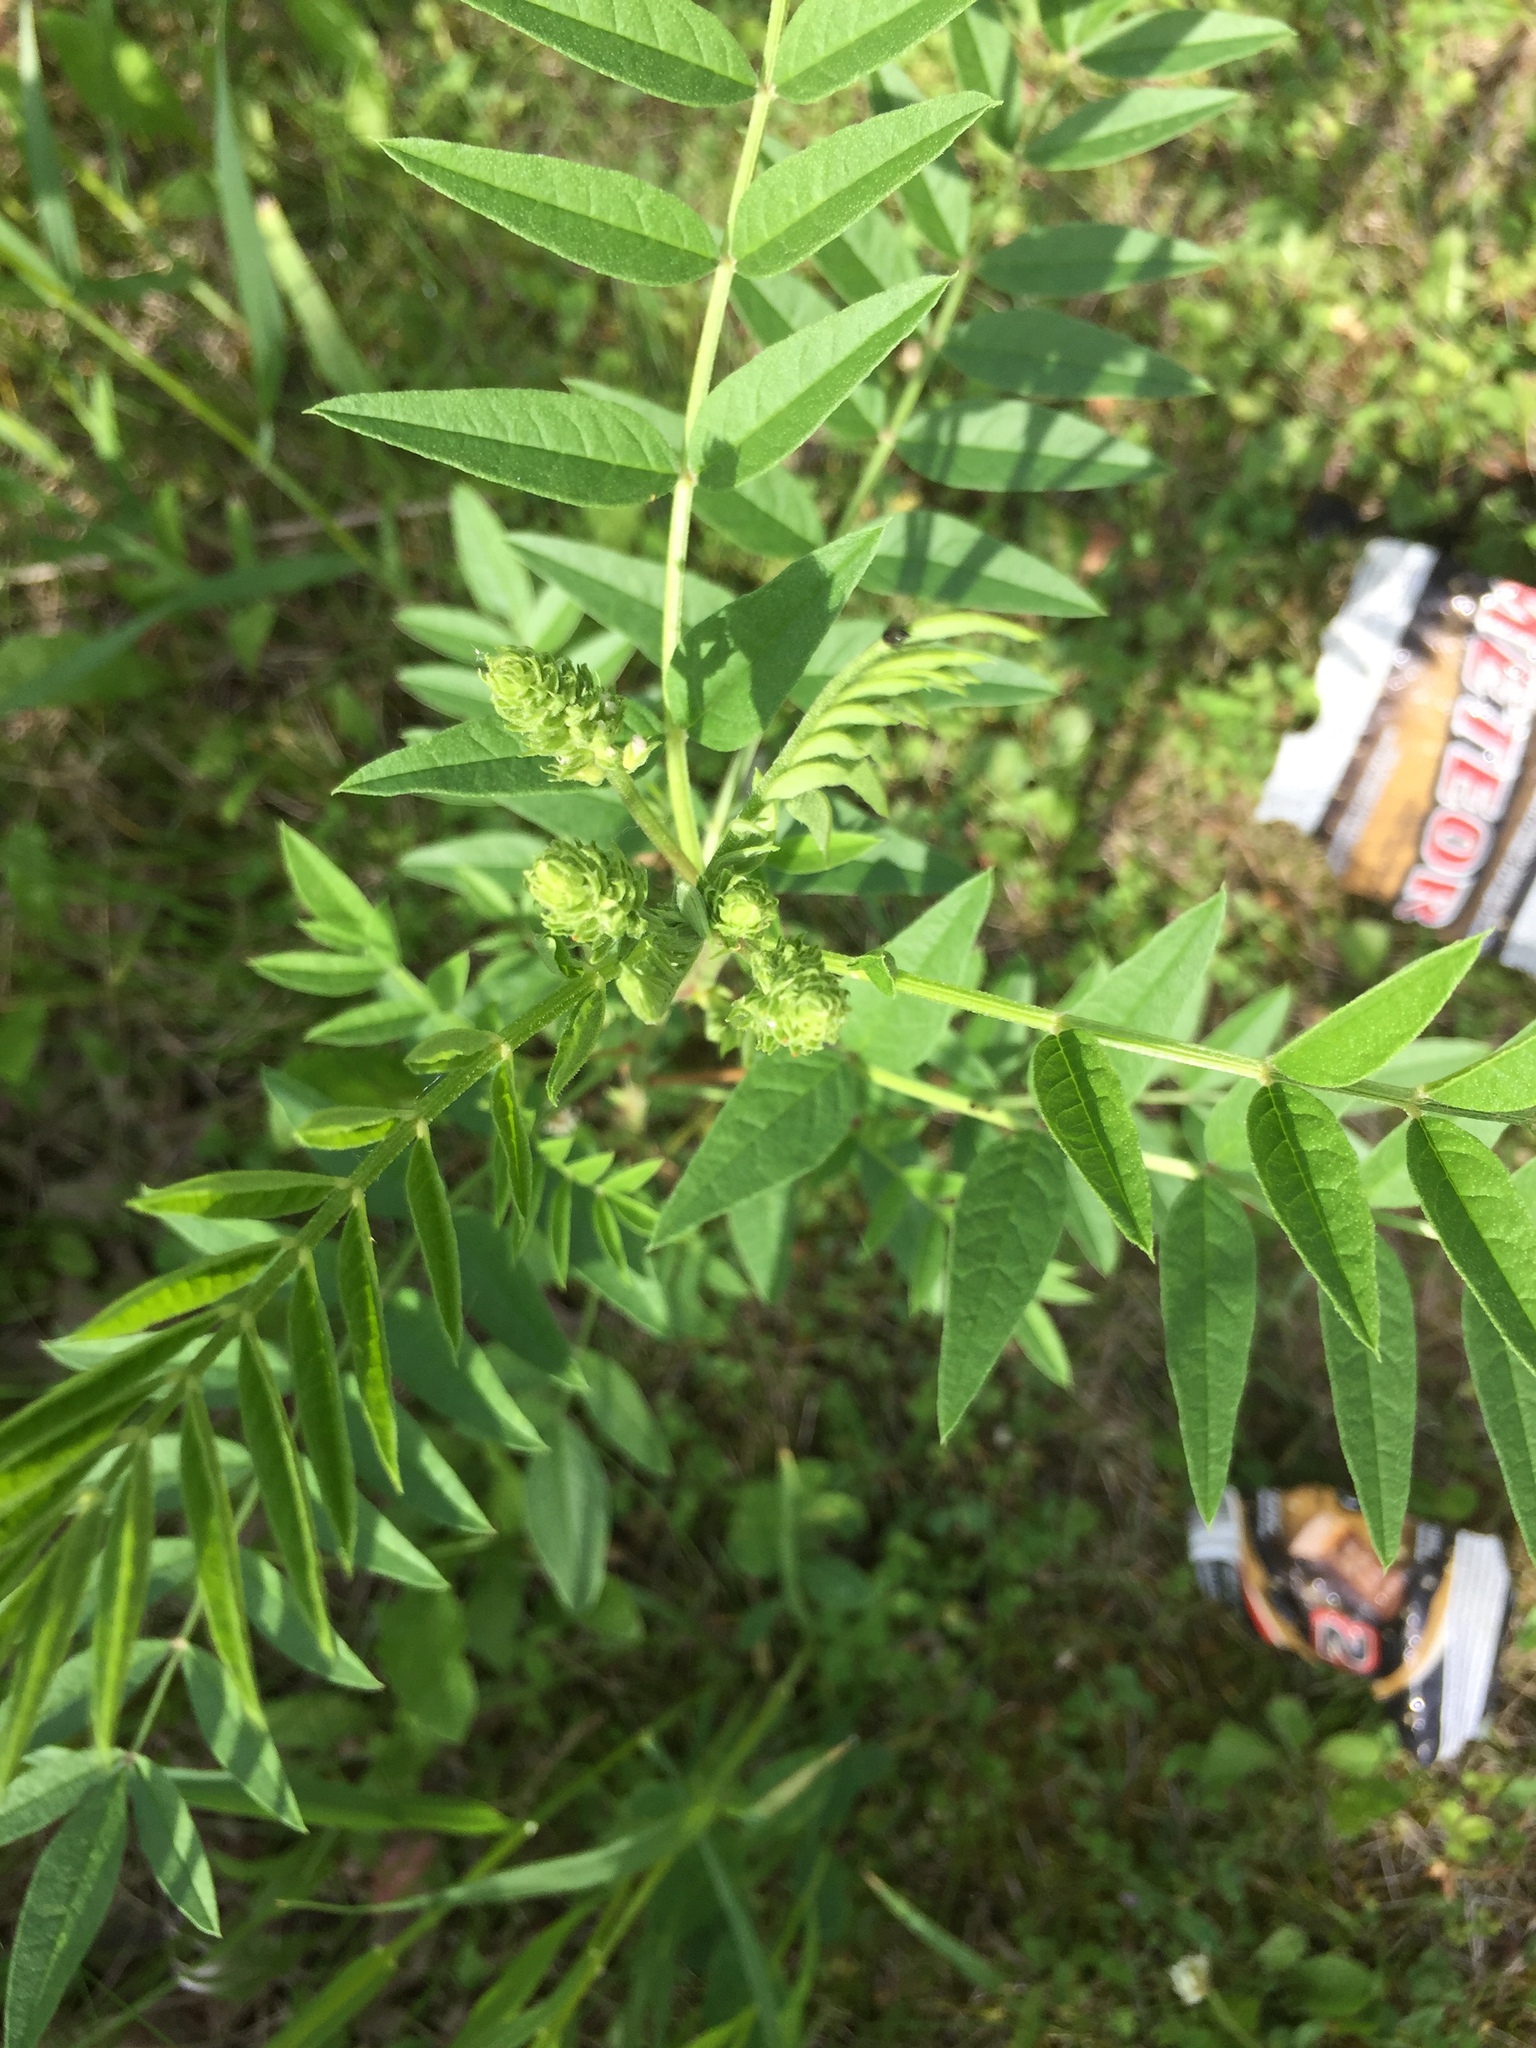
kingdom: Plantae
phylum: Tracheophyta
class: Magnoliopsida
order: Fabales
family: Fabaceae
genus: Glycyrrhiza
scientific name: Glycyrrhiza lepidota
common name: American liquorice
